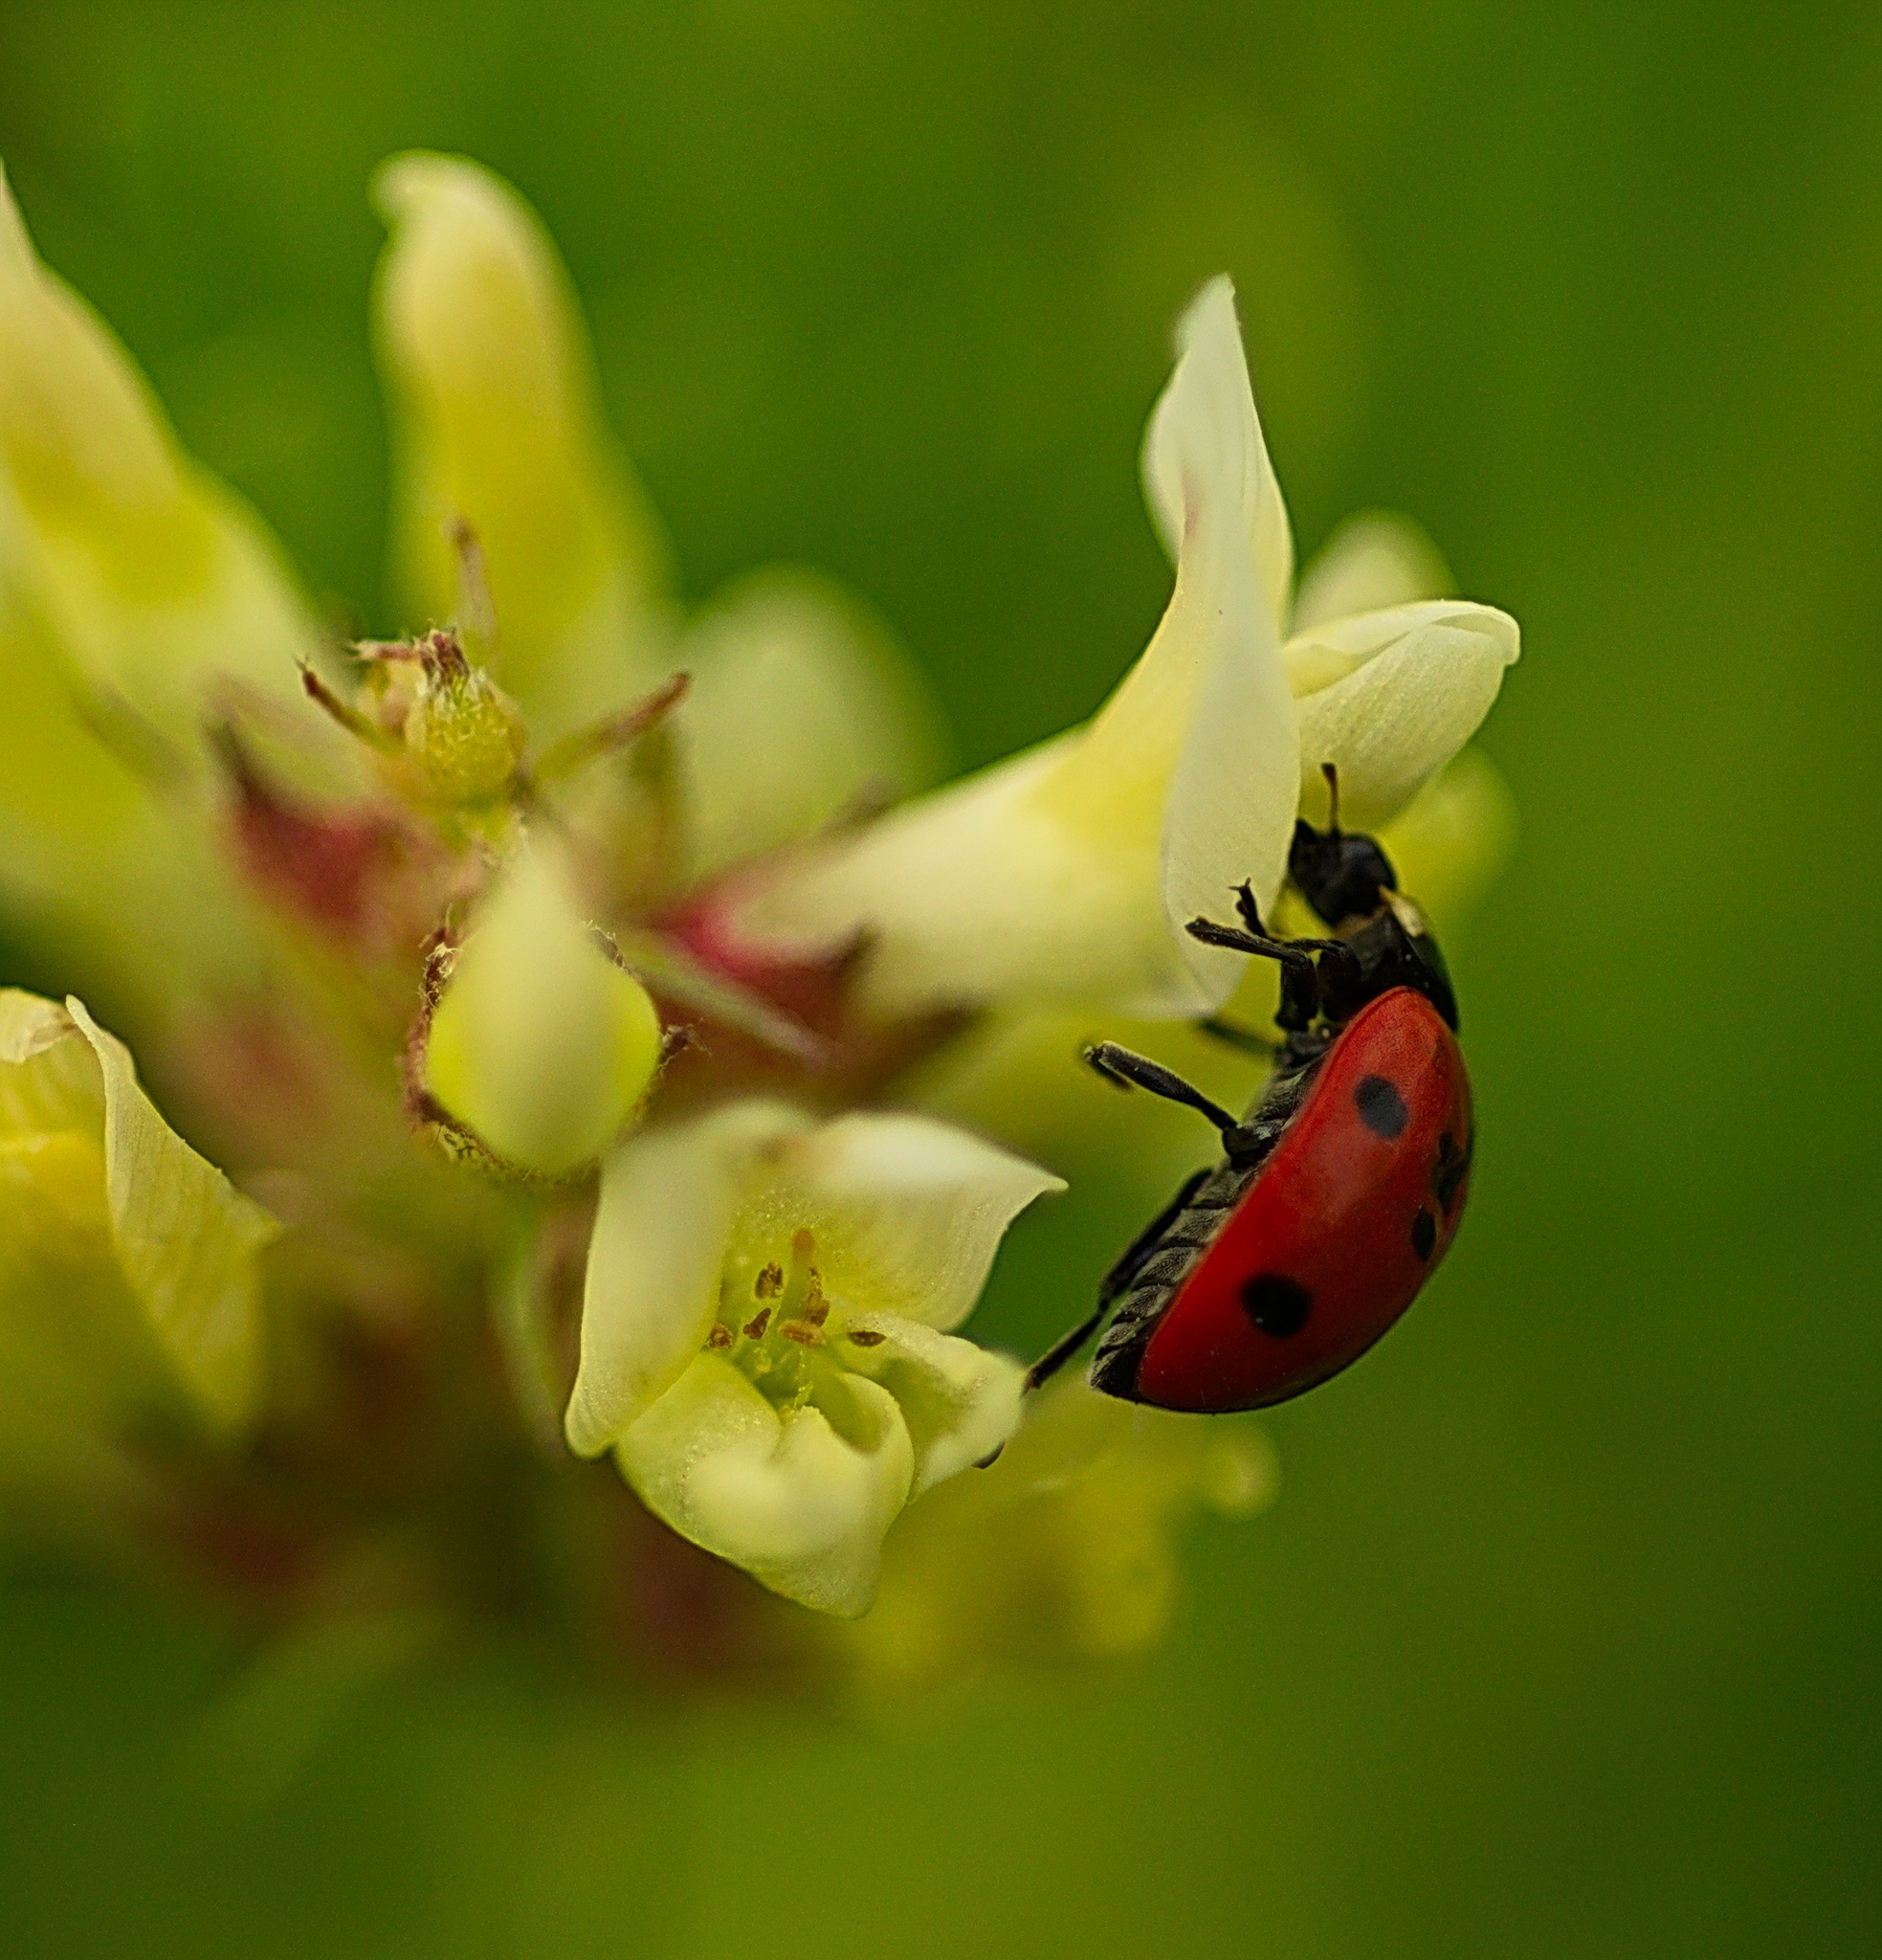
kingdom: Animalia
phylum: Arthropoda
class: Insecta
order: Coleoptera
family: Coccinellidae
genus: Coccinella
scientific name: Coccinella septempunctata
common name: Sevenspotted lady beetle
